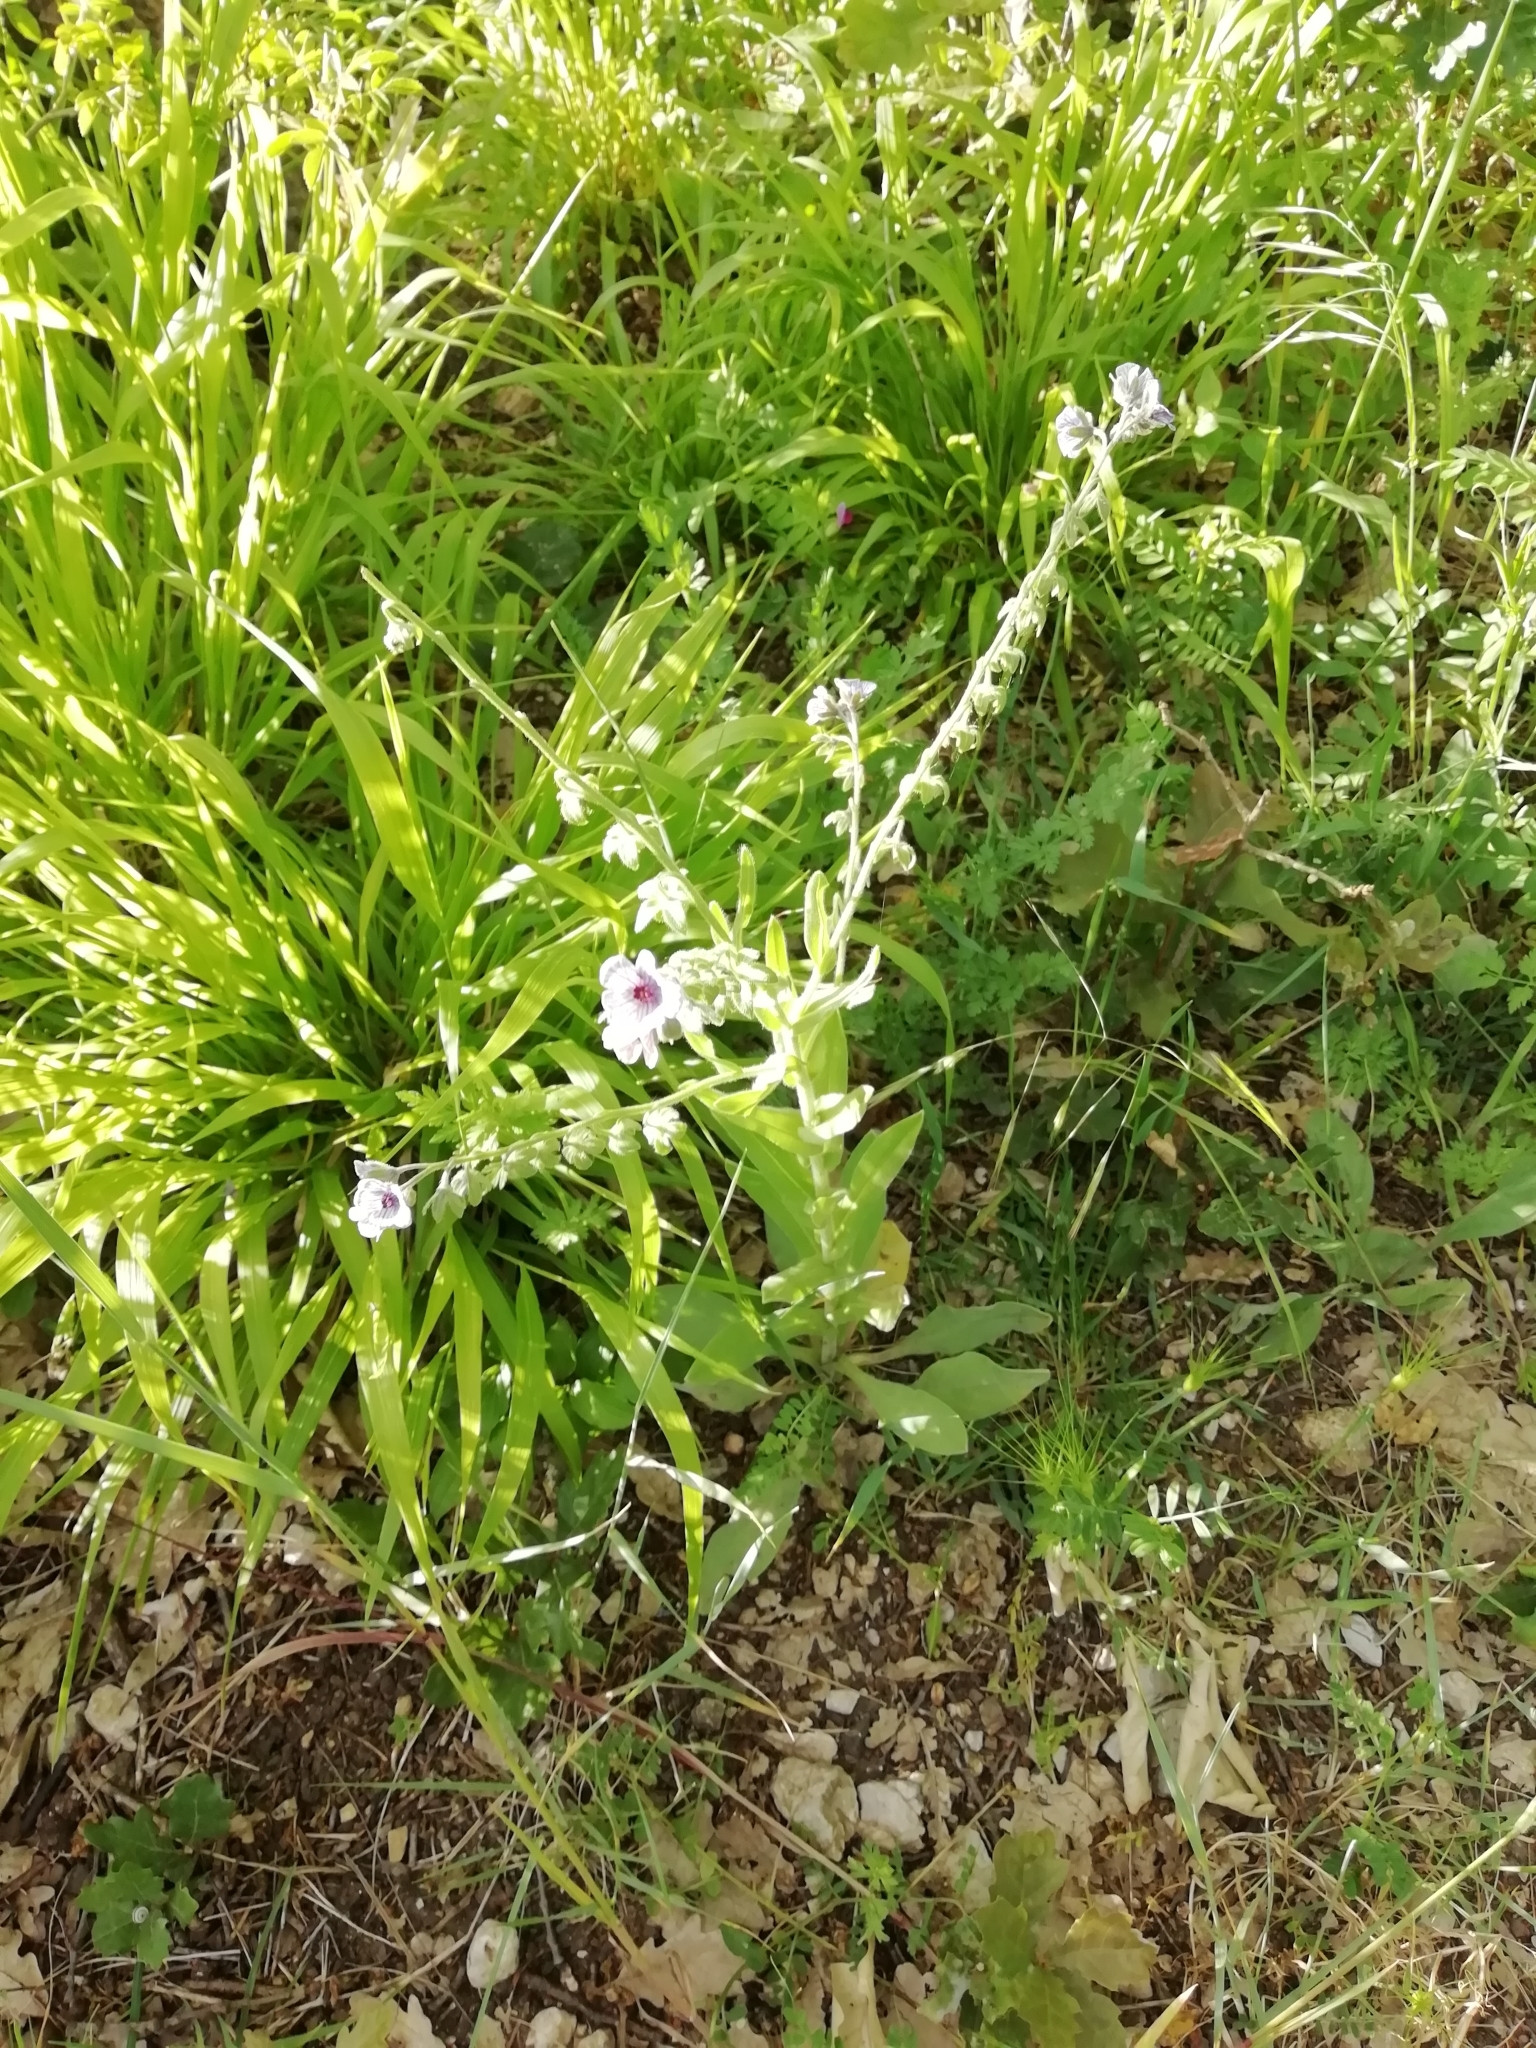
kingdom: Plantae
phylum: Tracheophyta
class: Magnoliopsida
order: Boraginales
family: Boraginaceae
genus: Cynoglossum
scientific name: Cynoglossum creticum
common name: Blue hound's tongue
